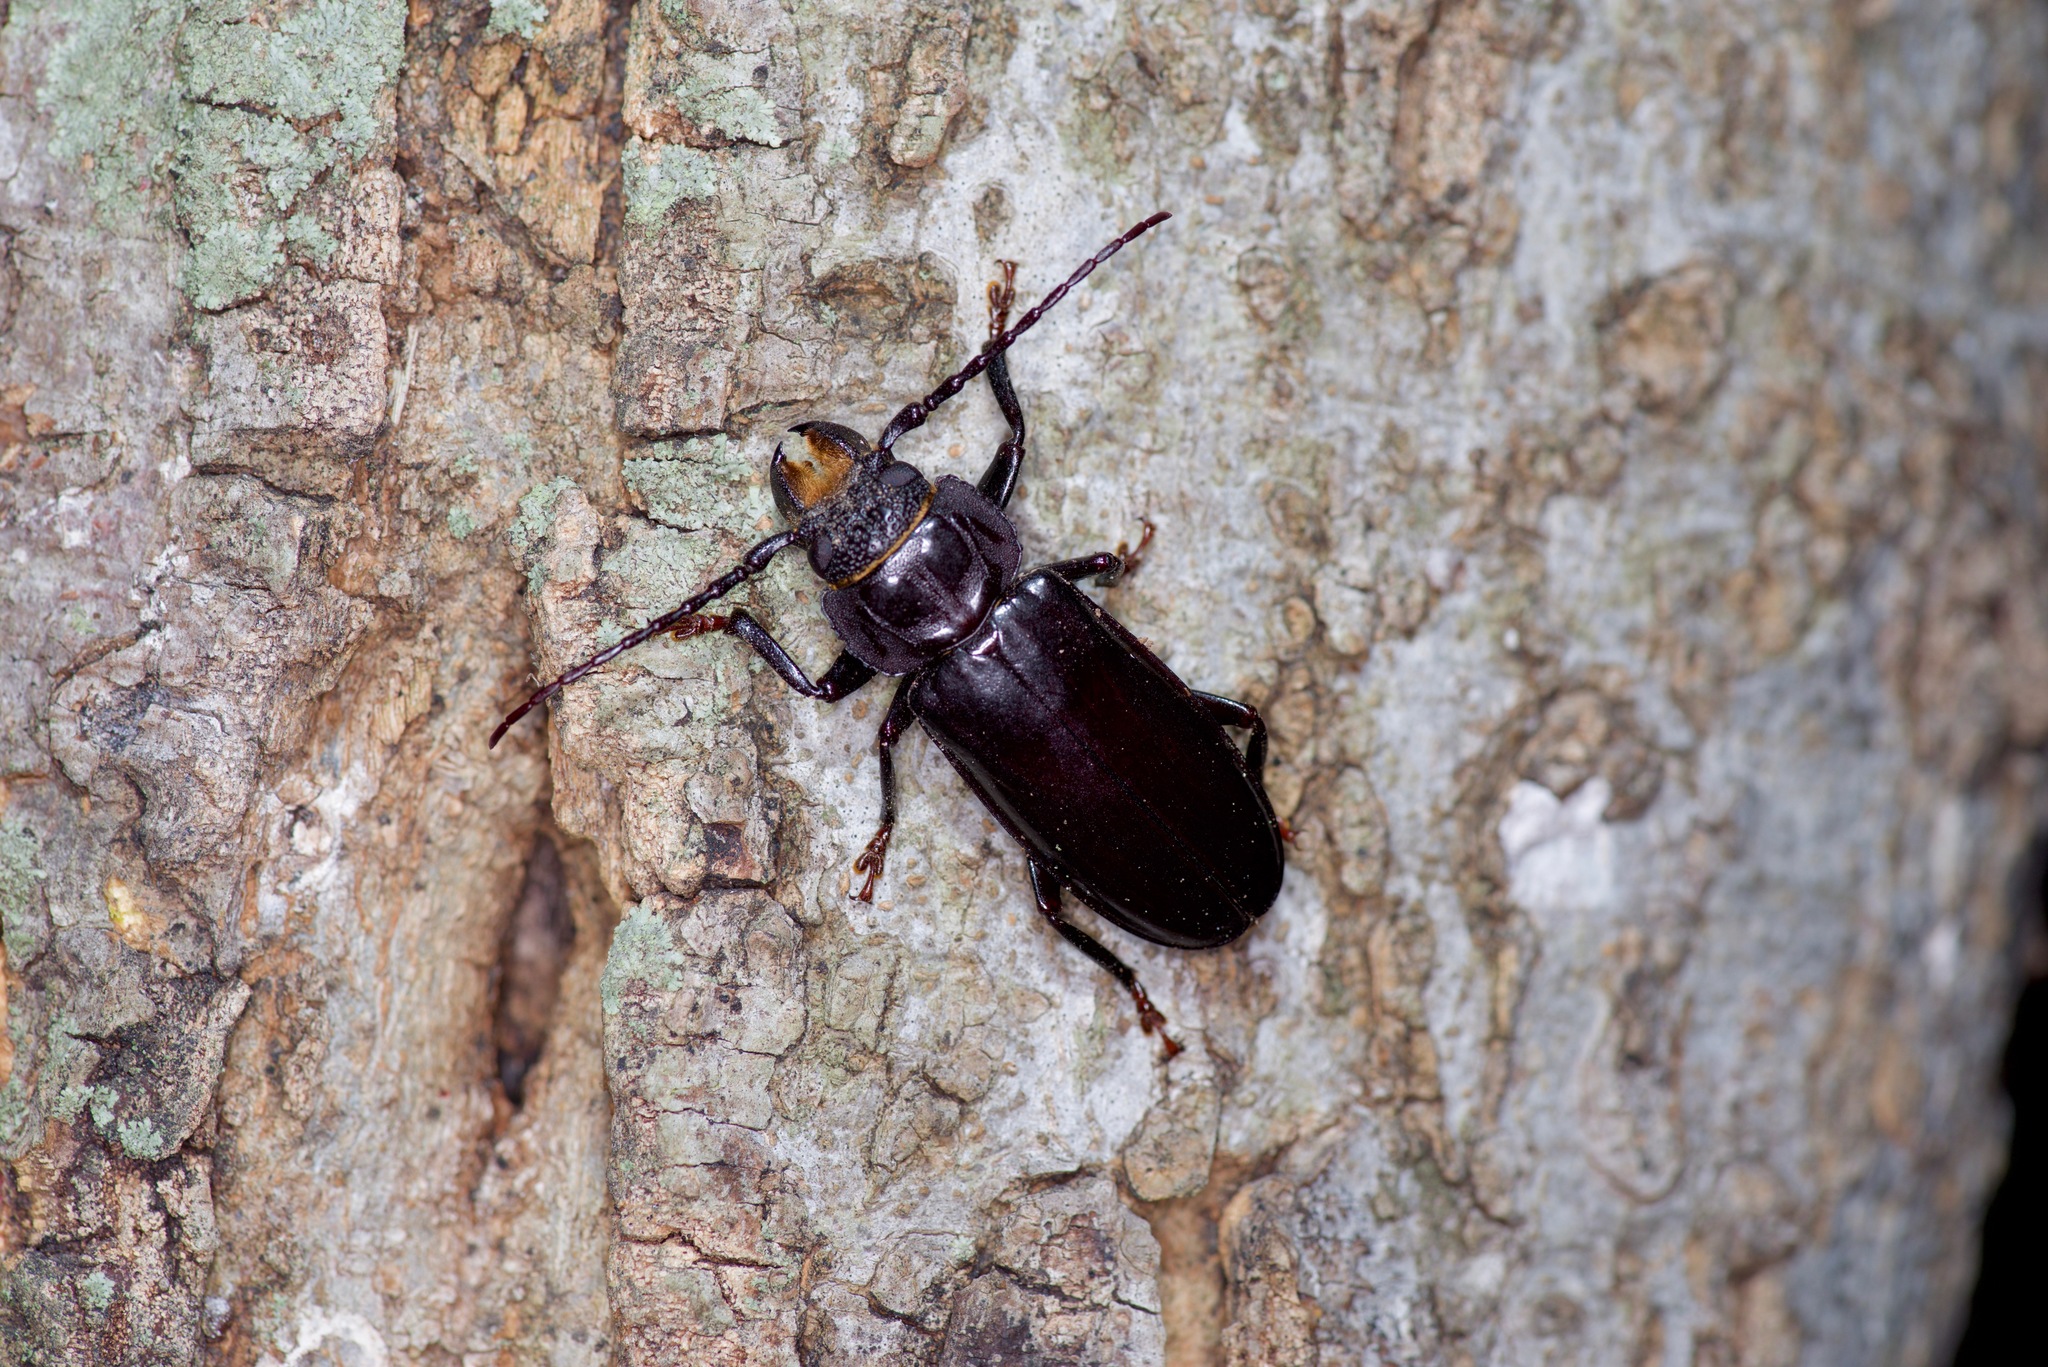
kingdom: Animalia
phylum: Arthropoda
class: Insecta
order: Coleoptera
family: Cerambycidae
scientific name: Cerambycidae
